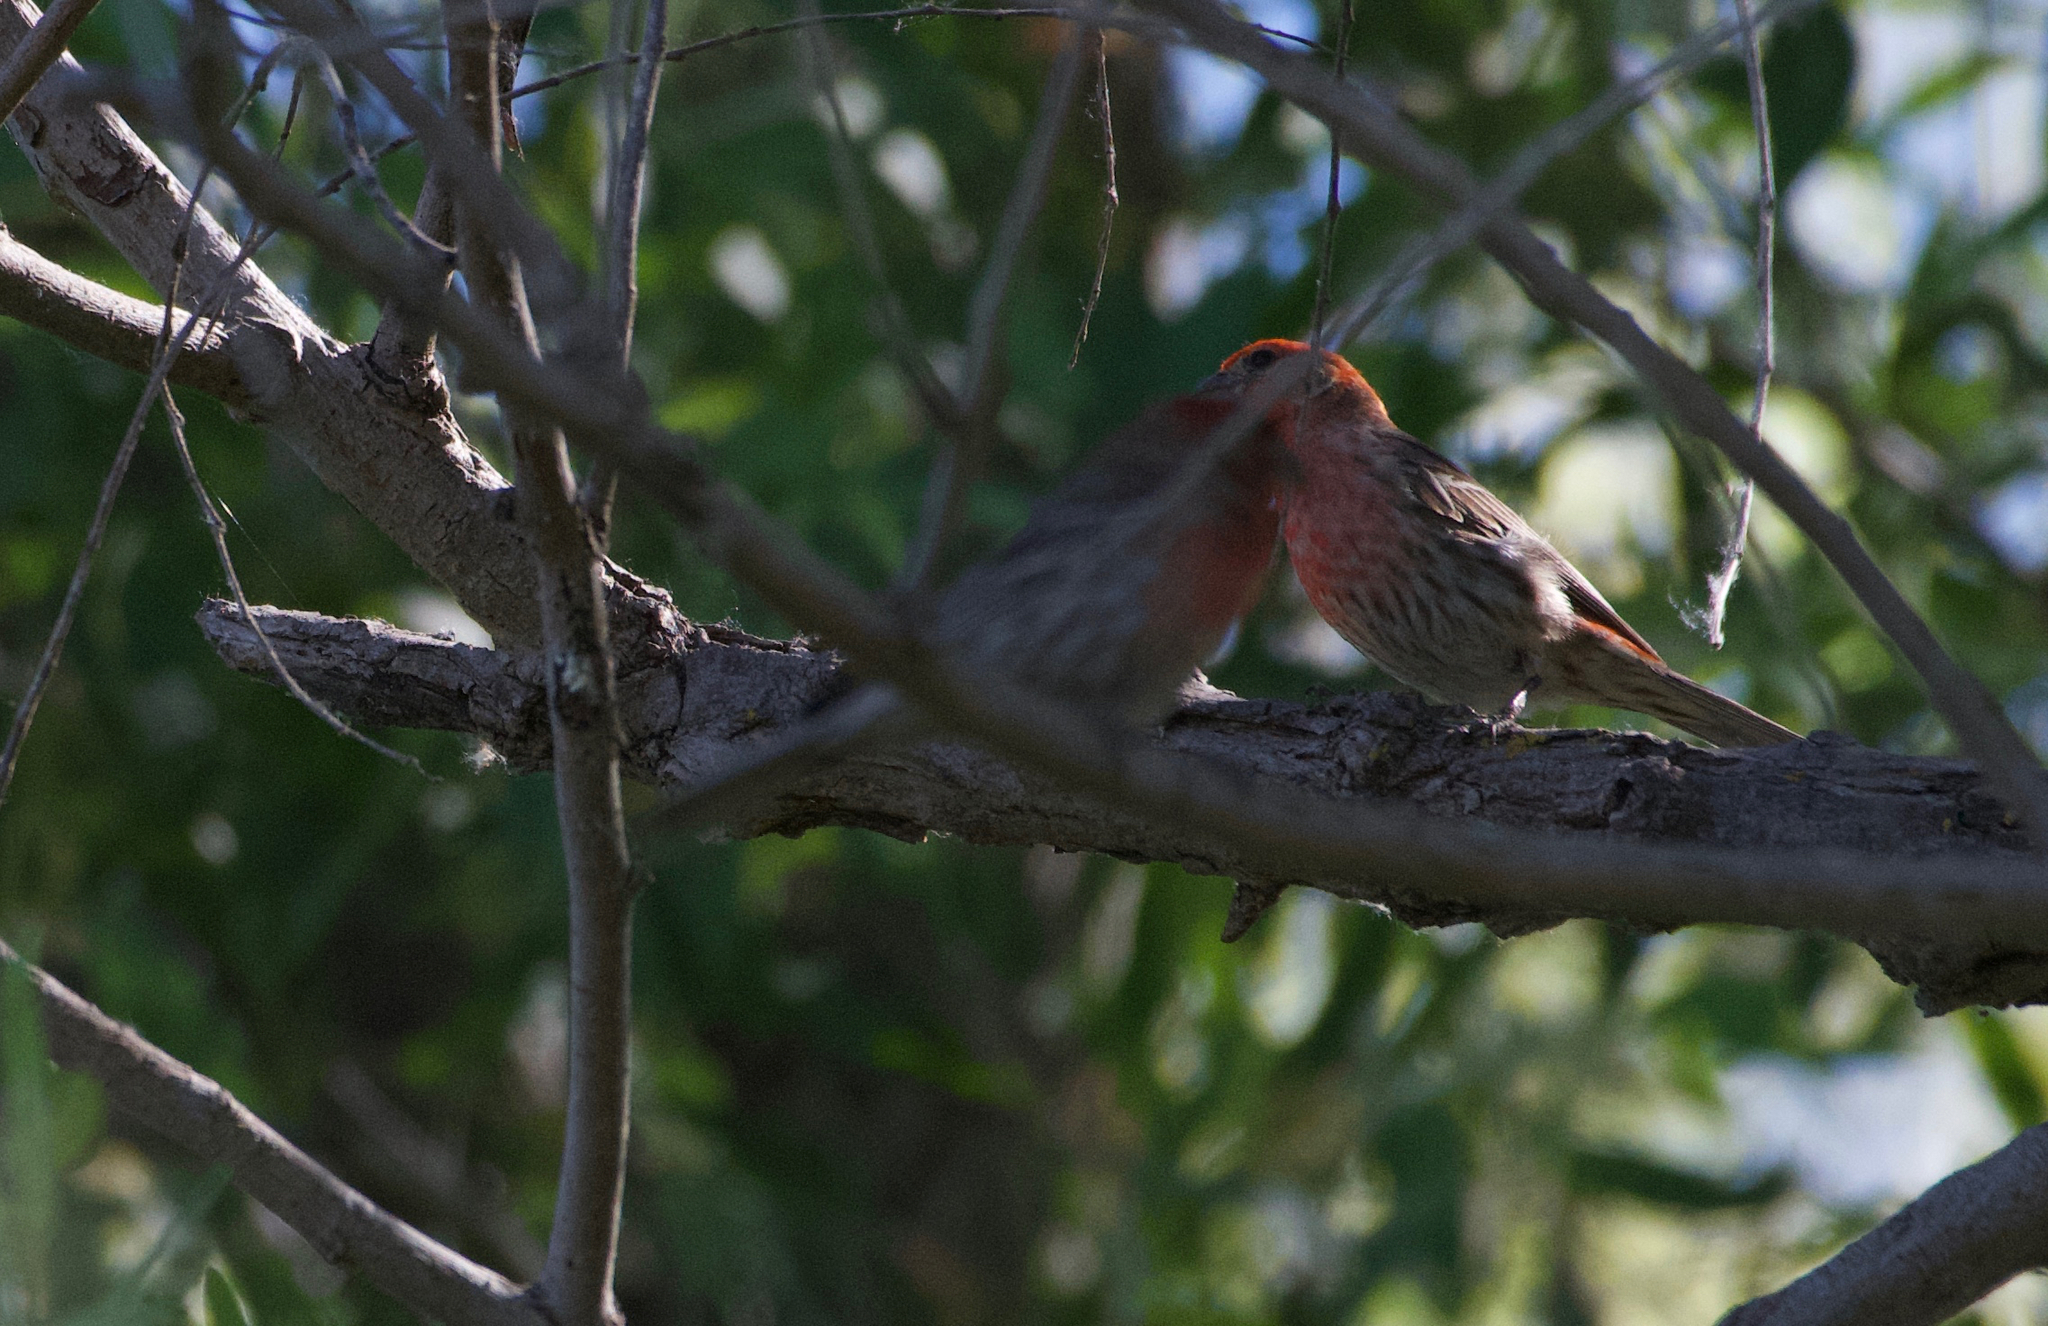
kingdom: Animalia
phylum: Chordata
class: Aves
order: Passeriformes
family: Fringillidae
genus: Haemorhous
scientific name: Haemorhous mexicanus
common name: House finch
